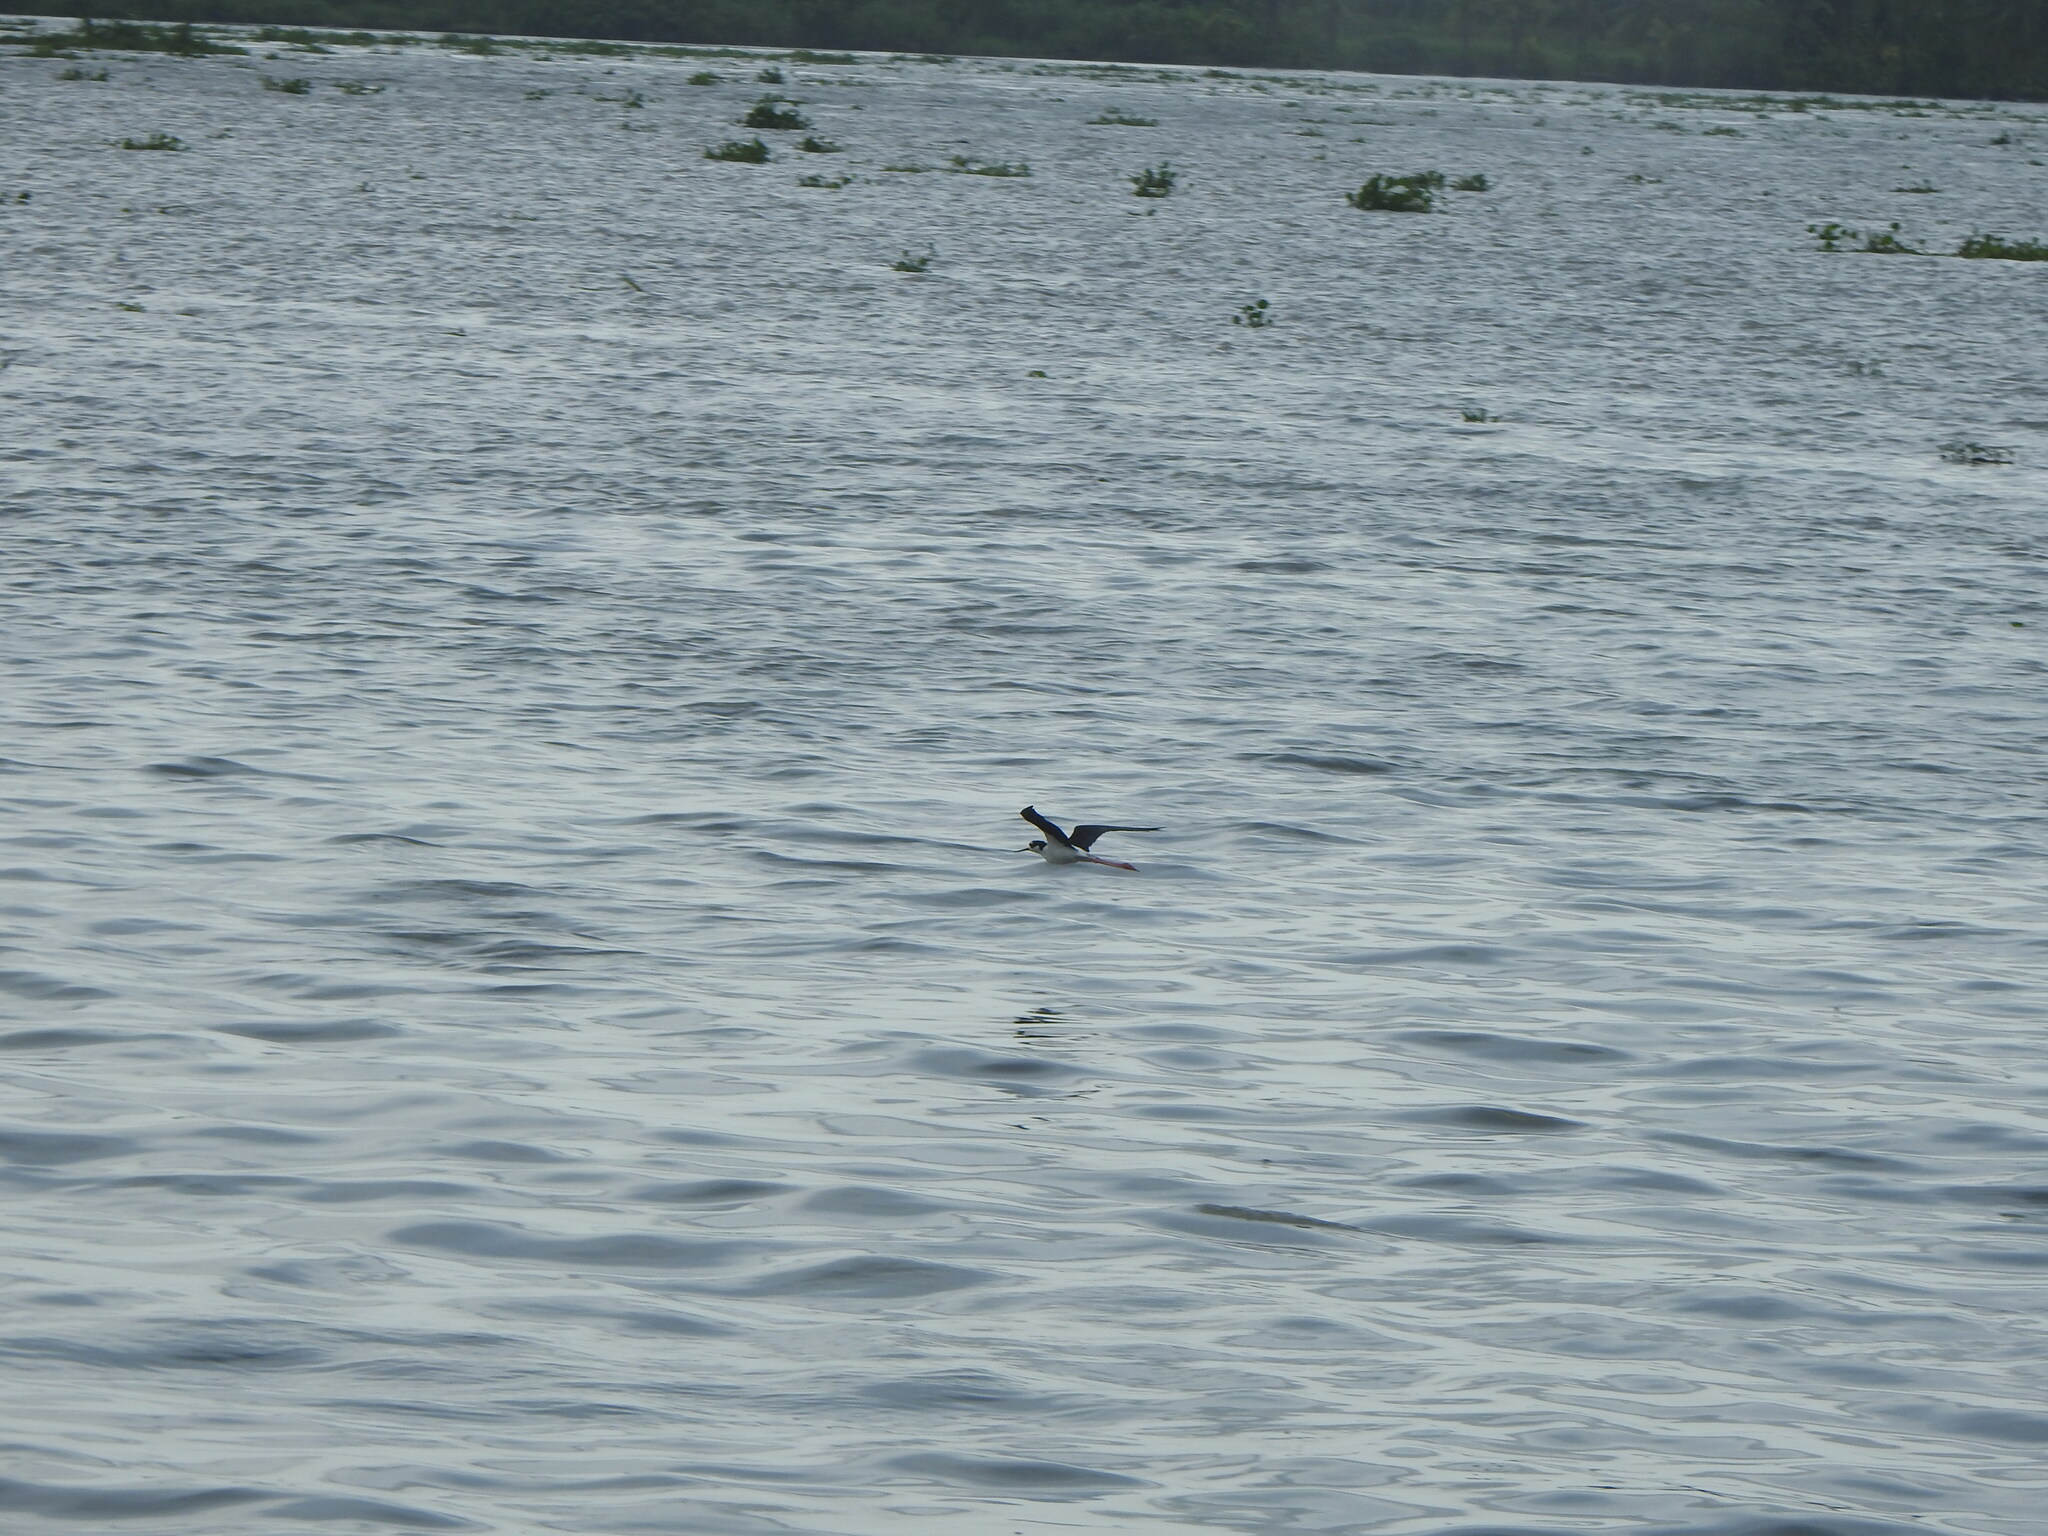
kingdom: Animalia
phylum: Chordata
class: Aves
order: Charadriiformes
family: Recurvirostridae
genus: Himantopus
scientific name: Himantopus mexicanus
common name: Black-necked stilt
